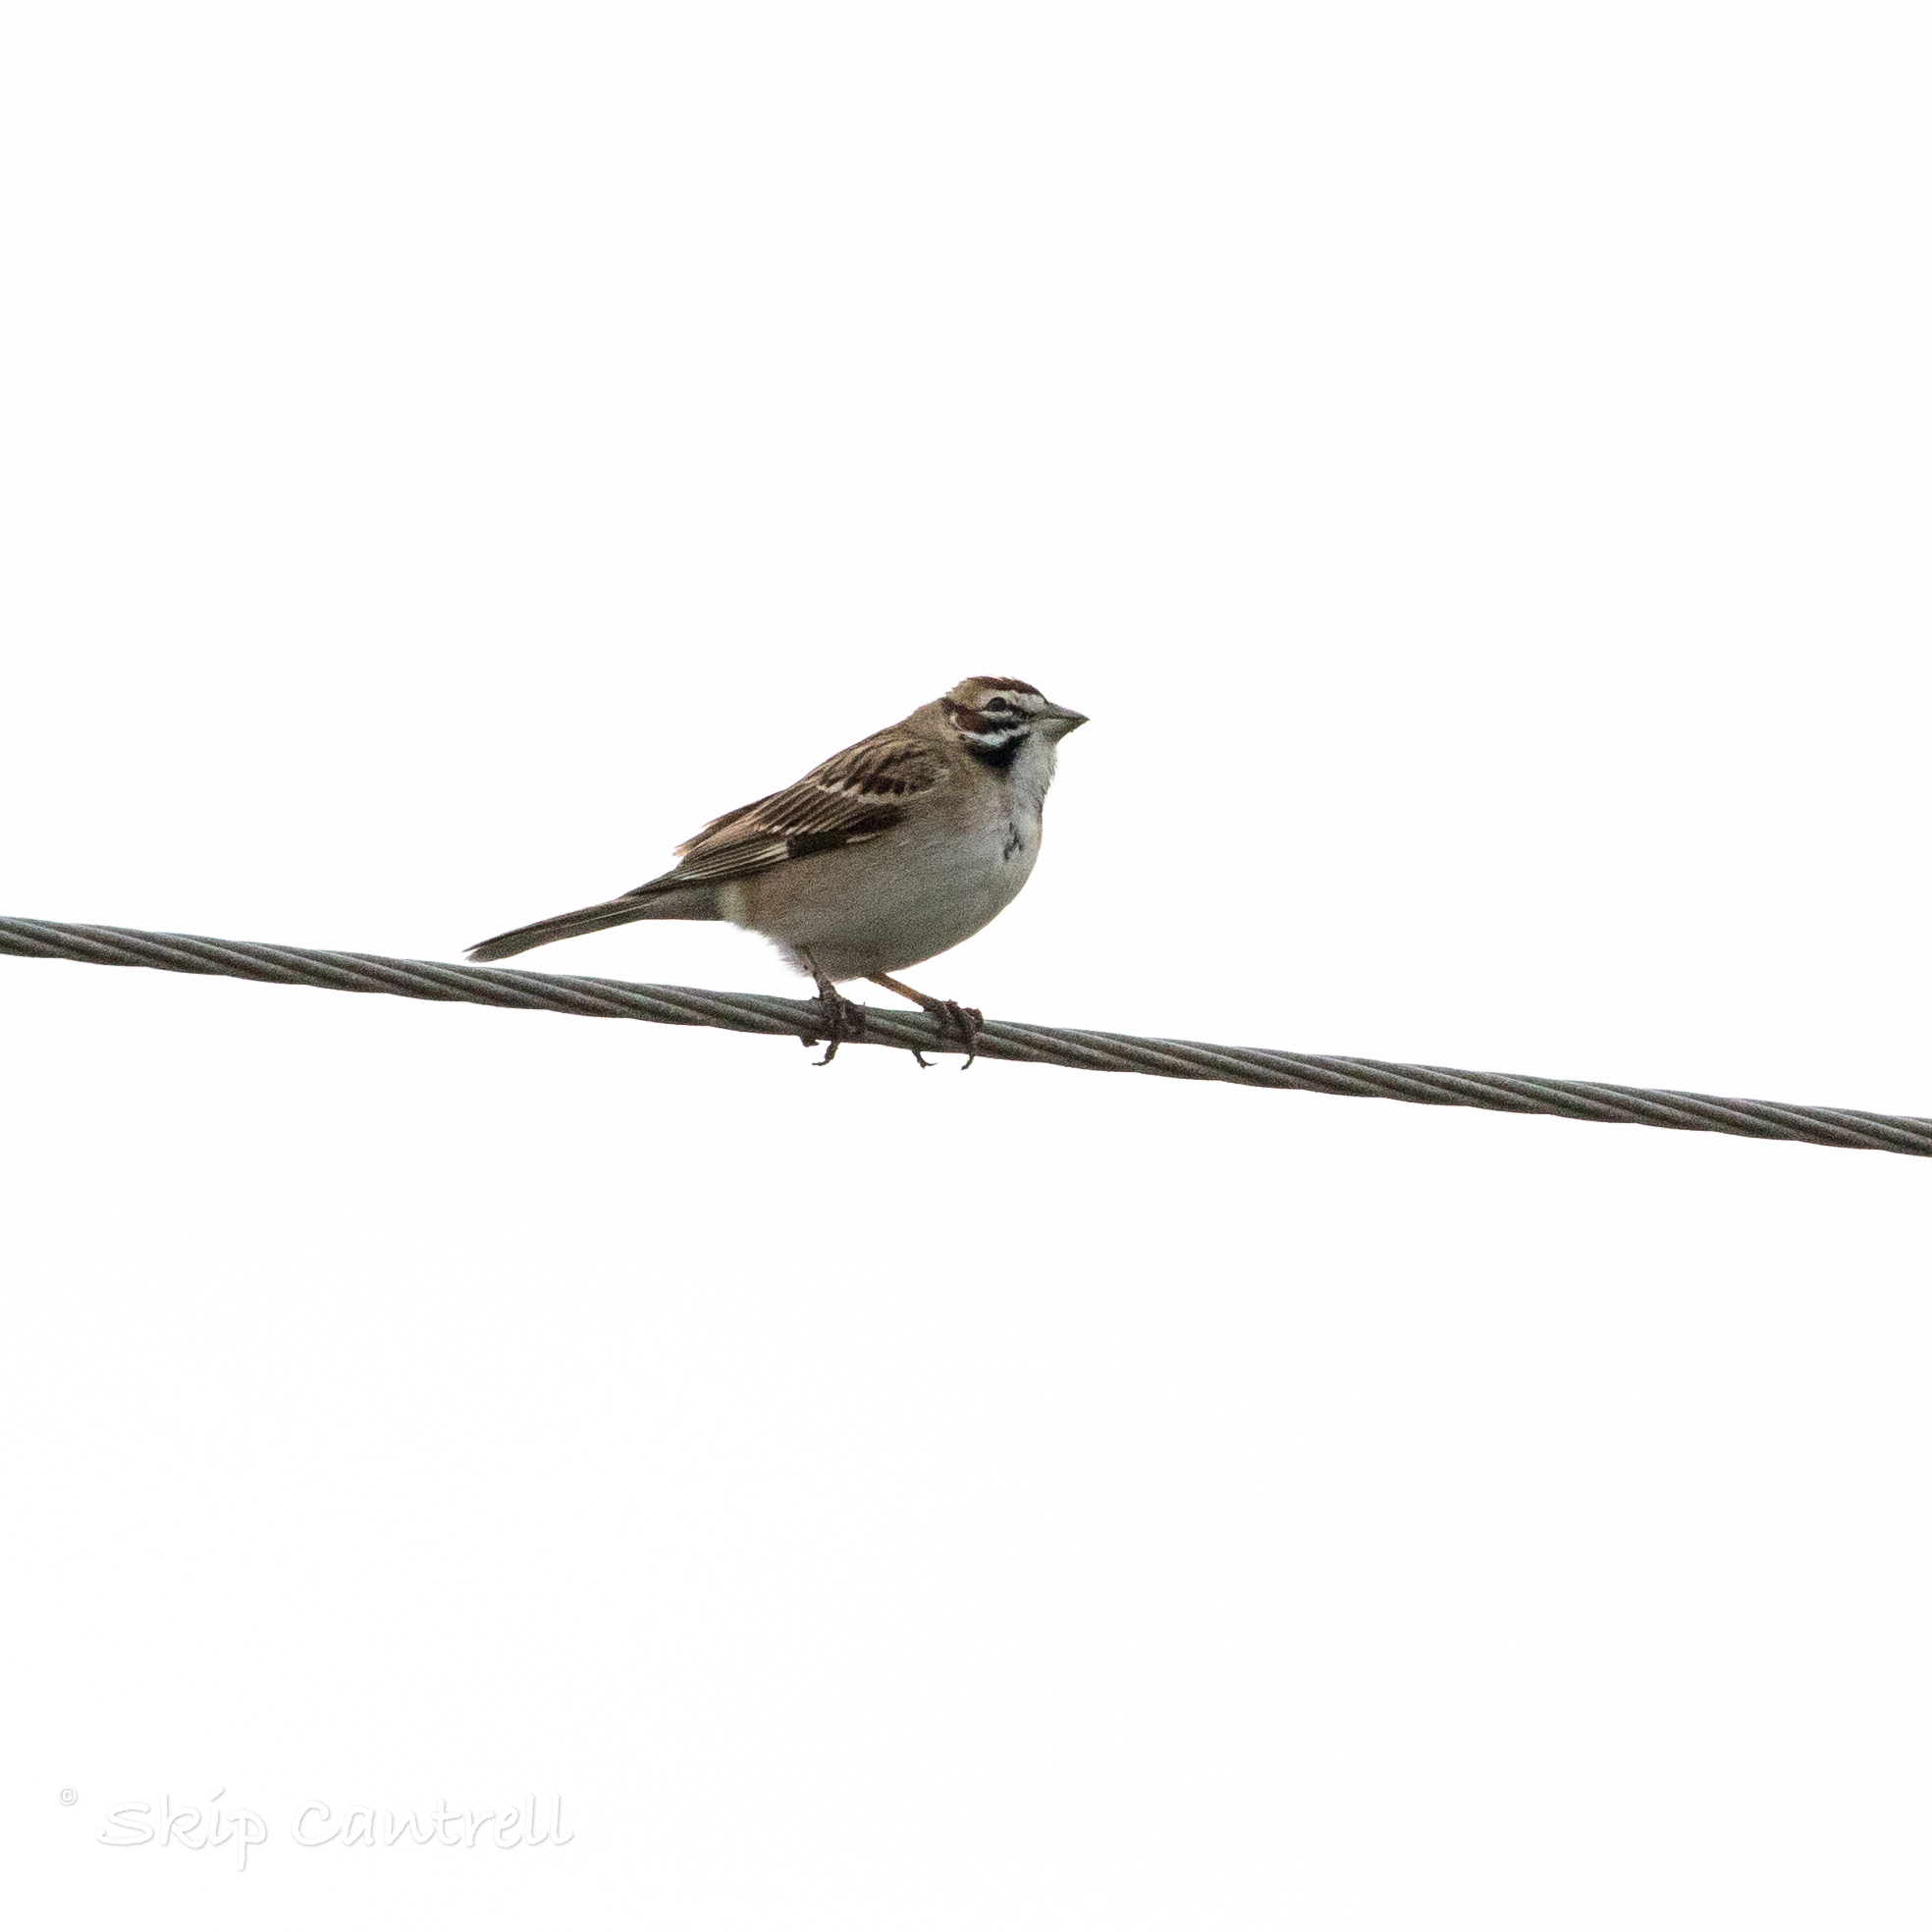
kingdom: Animalia
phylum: Chordata
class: Aves
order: Passeriformes
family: Passerellidae
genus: Chondestes
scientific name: Chondestes grammacus
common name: Lark sparrow
